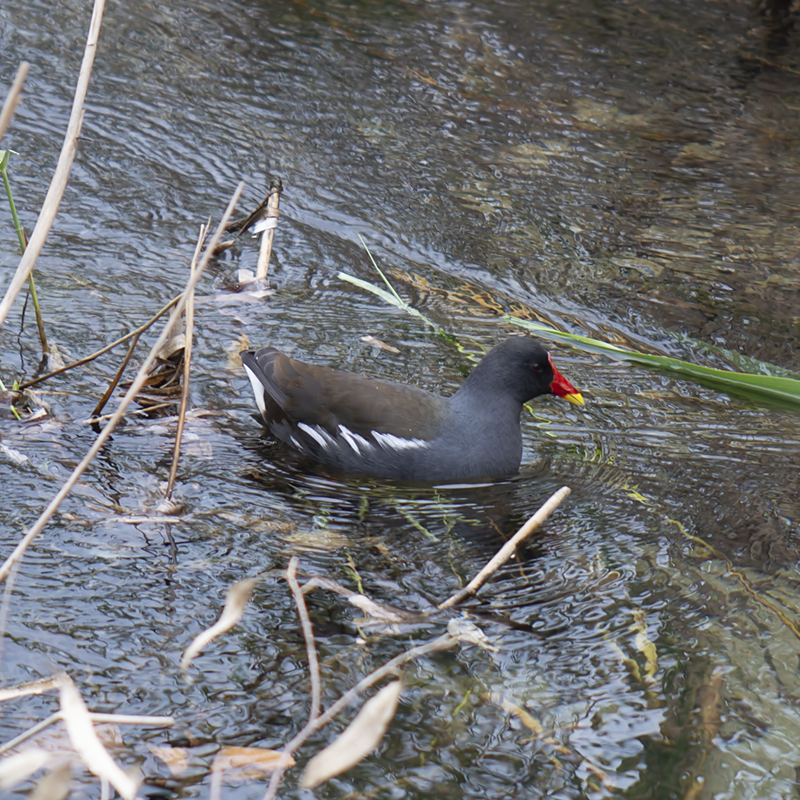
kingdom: Animalia
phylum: Chordata
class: Aves
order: Gruiformes
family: Rallidae
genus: Gallinula
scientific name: Gallinula chloropus
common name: Common moorhen
